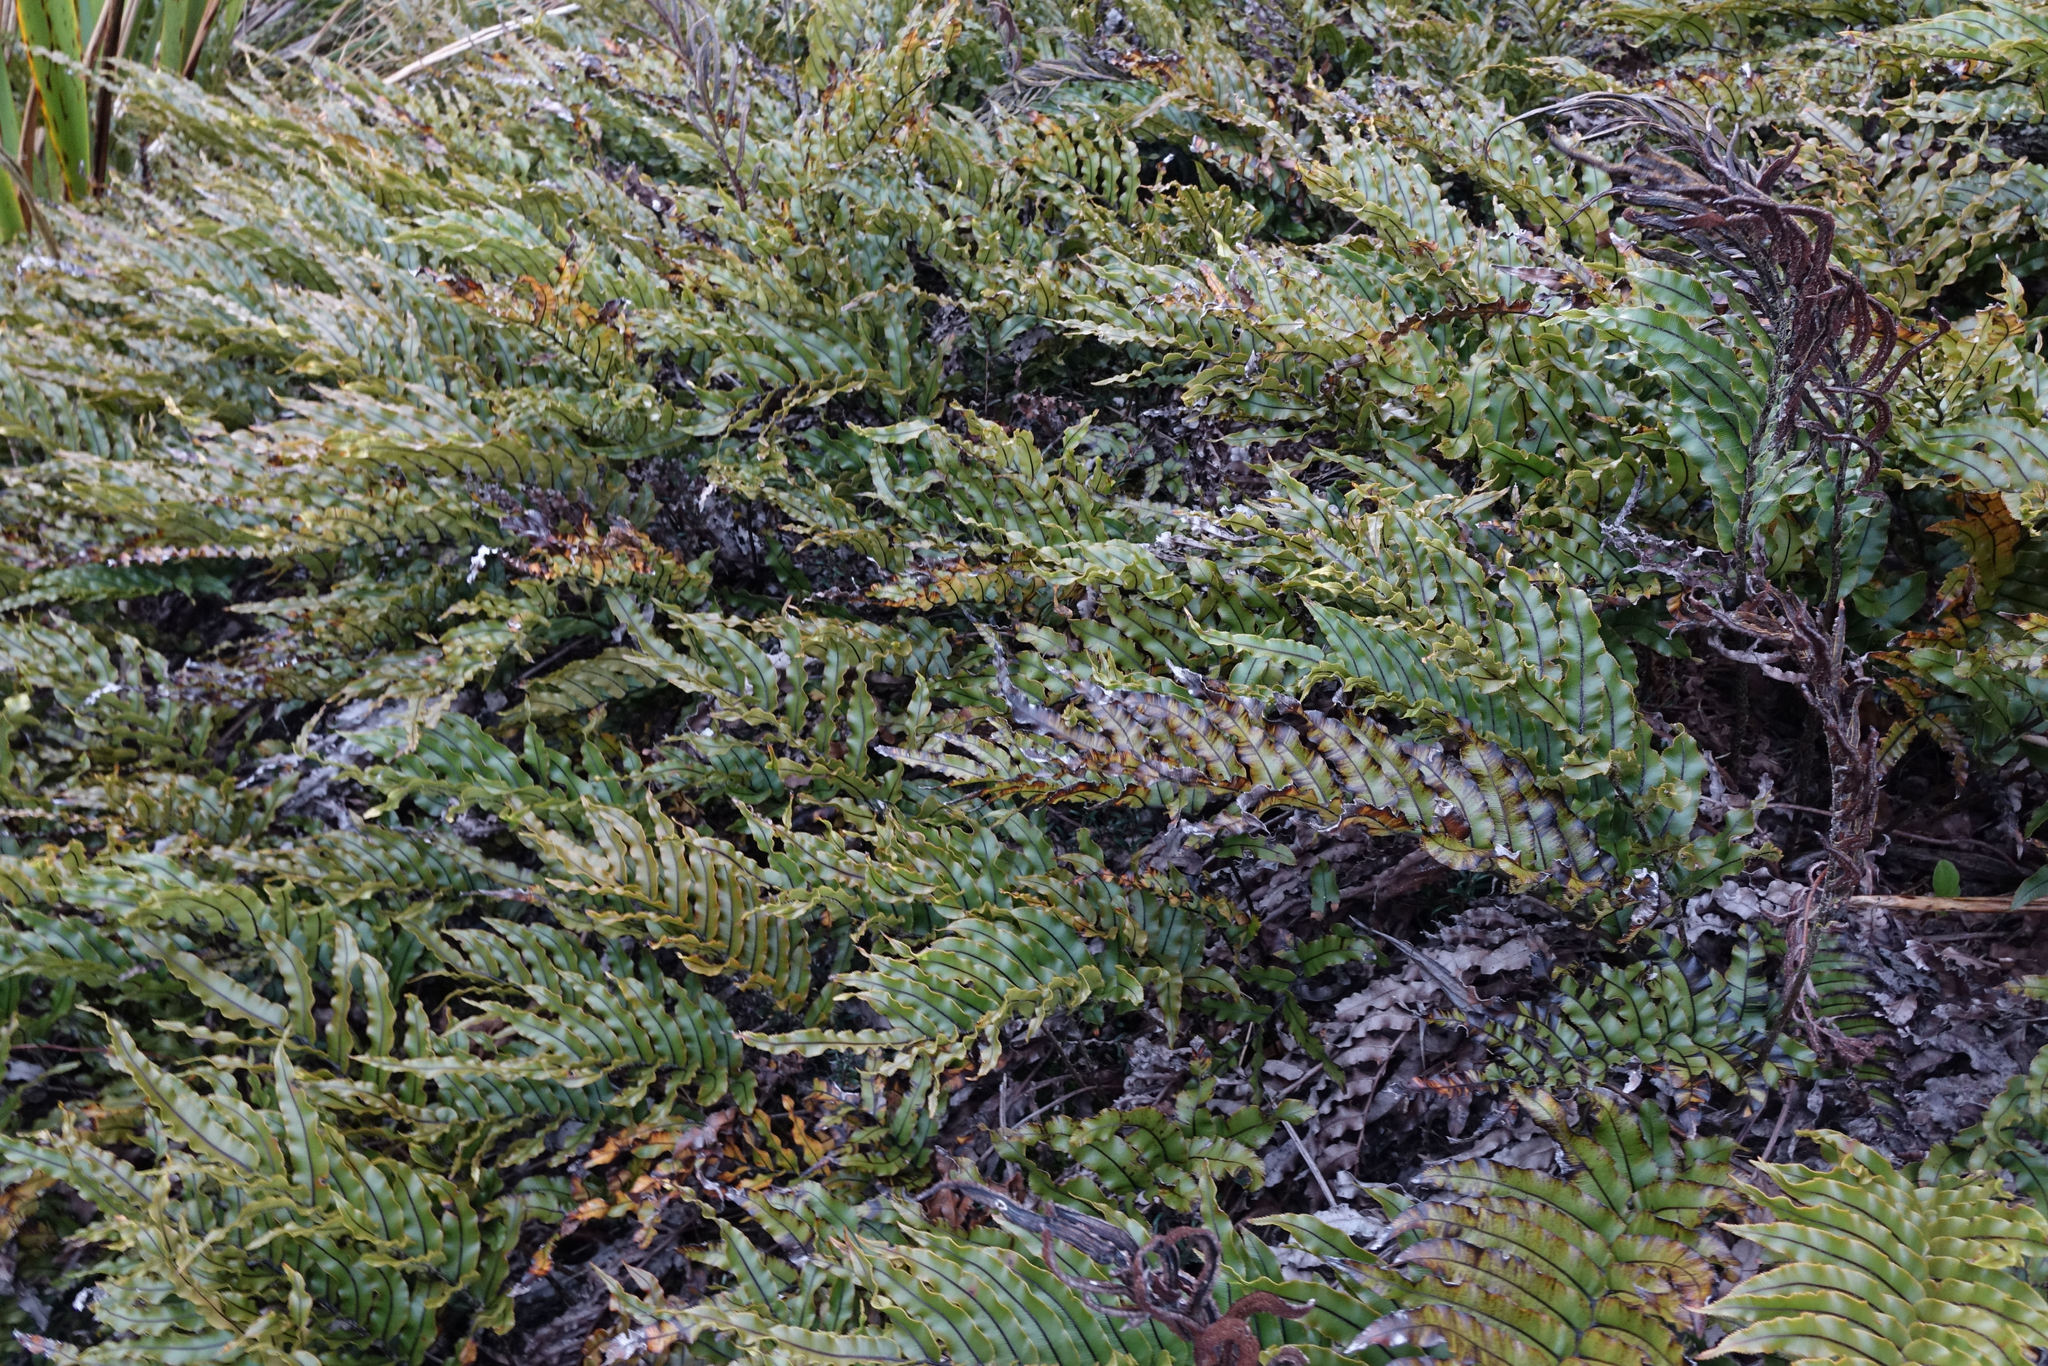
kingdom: Plantae
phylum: Tracheophyta
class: Polypodiopsida
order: Polypodiales
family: Blechnaceae
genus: Parablechnum
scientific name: Parablechnum montanum
